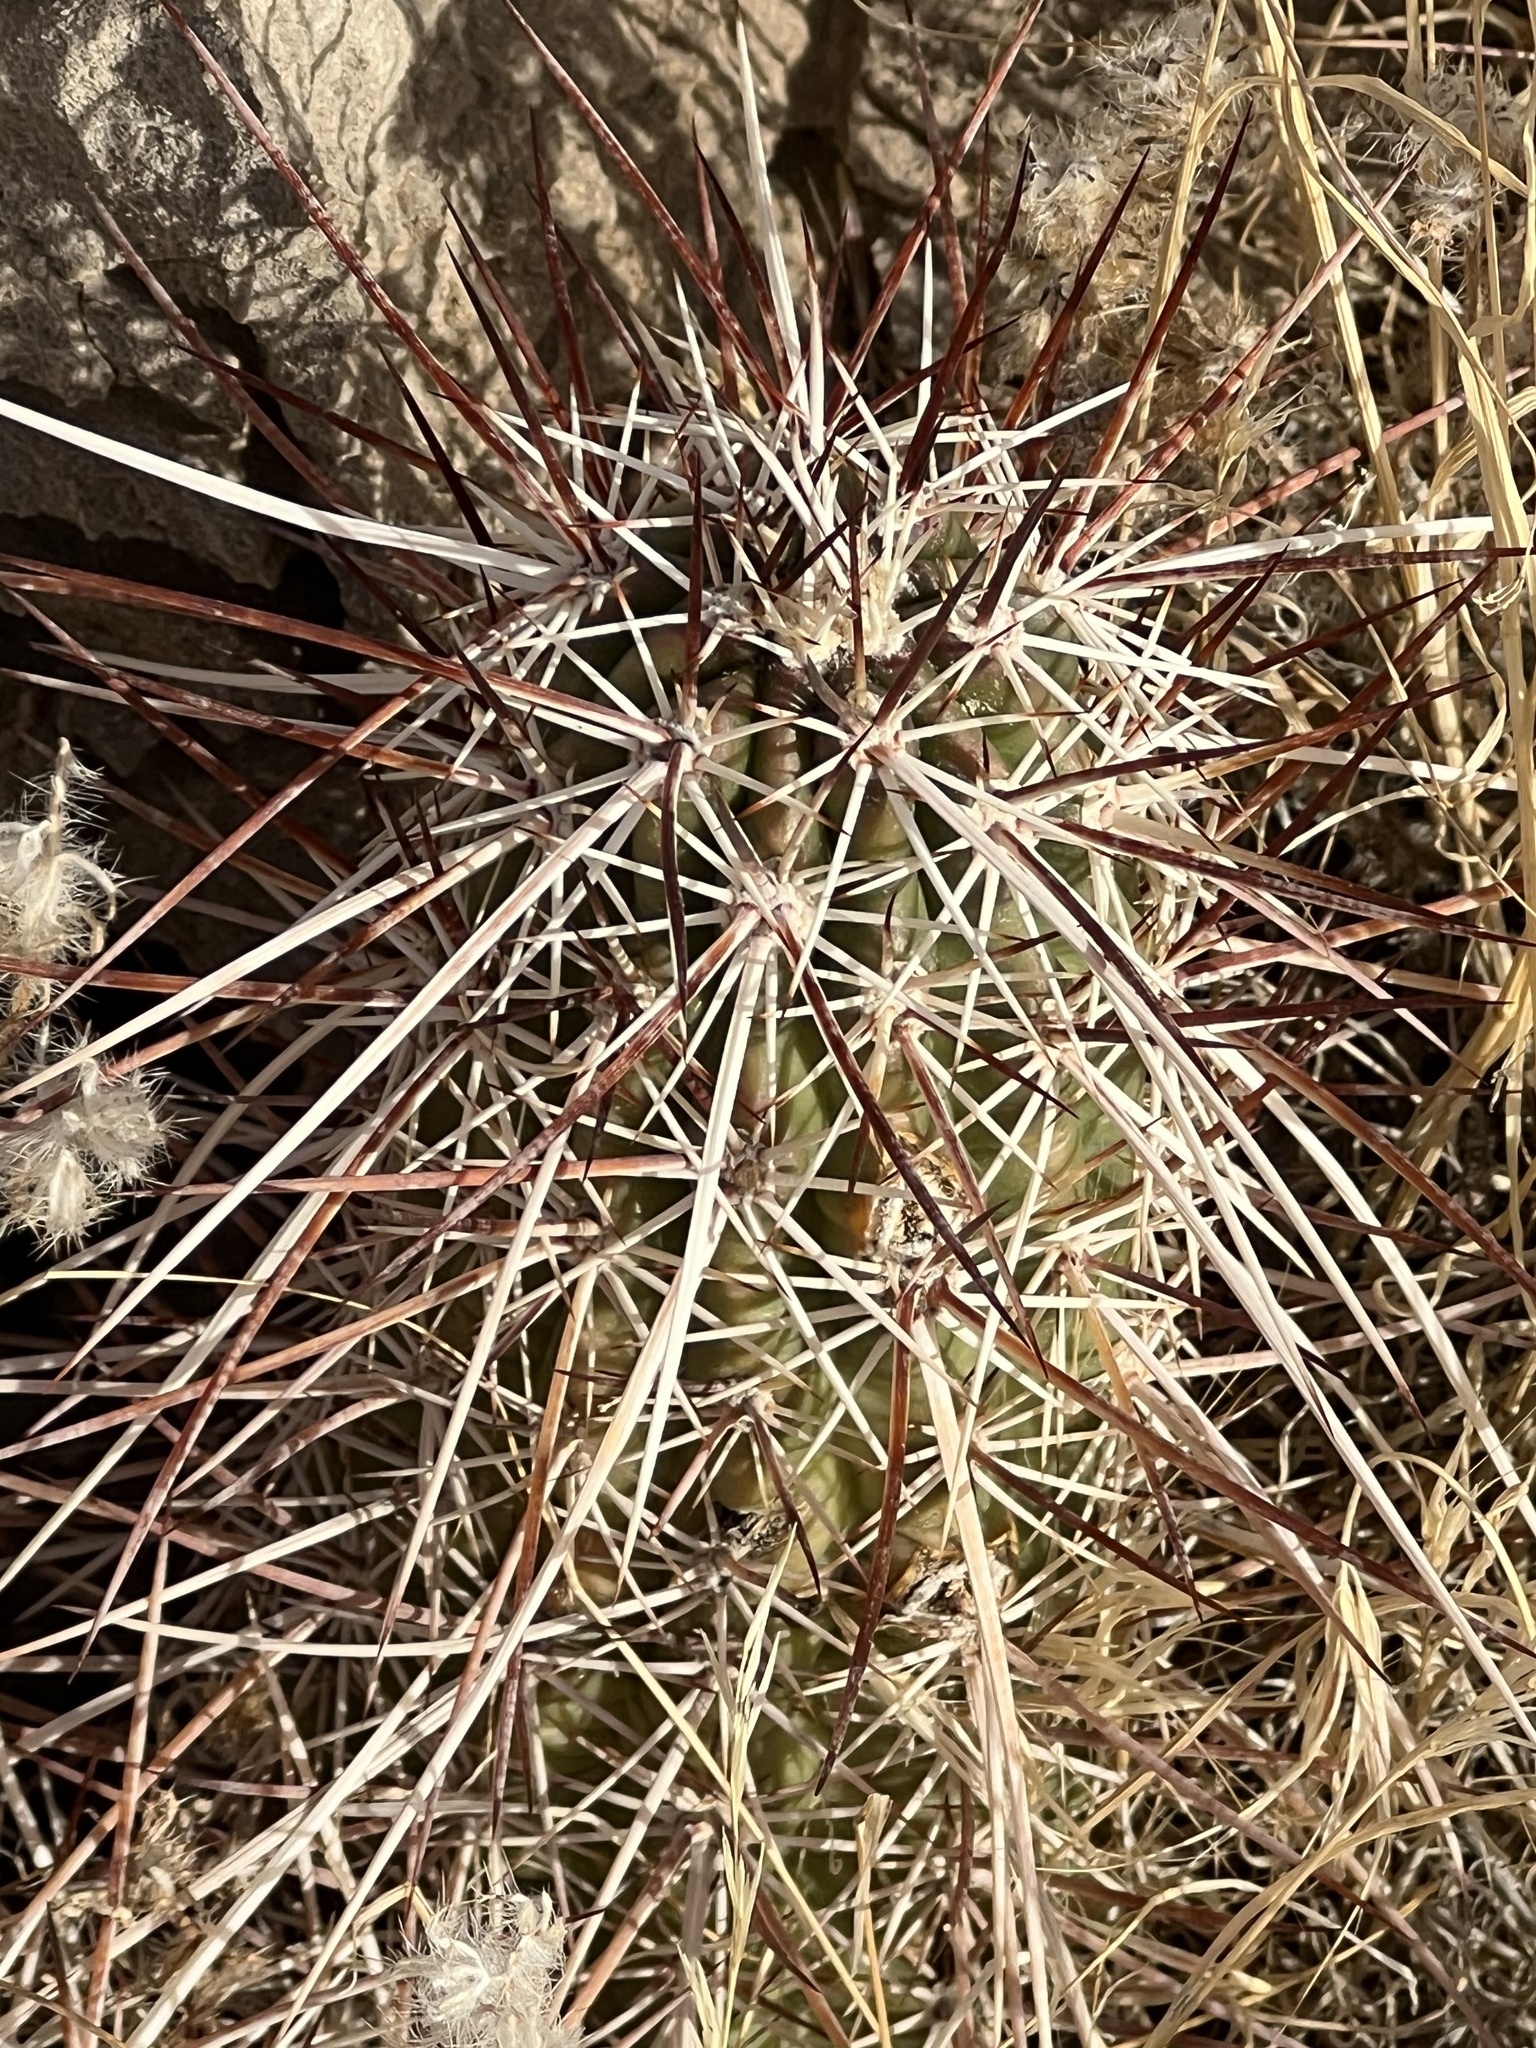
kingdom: Plantae
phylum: Tracheophyta
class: Magnoliopsida
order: Caryophyllales
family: Cactaceae
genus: Echinocereus
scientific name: Echinocereus engelmannii
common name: Engelmann's hedgehog cactus
